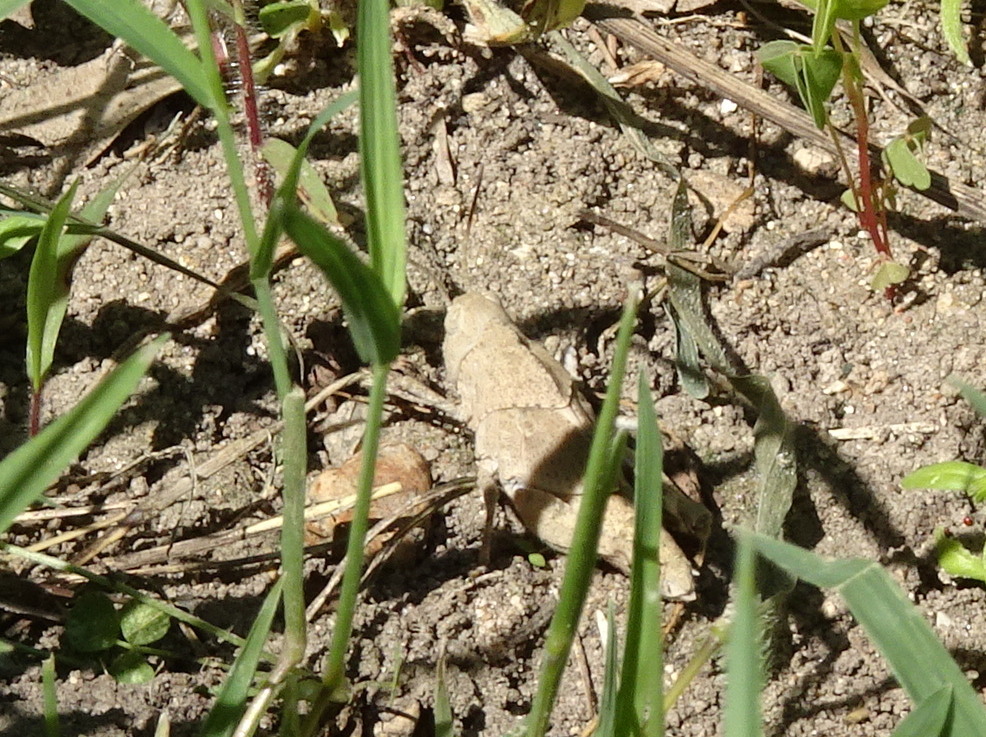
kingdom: Animalia
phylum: Arthropoda
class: Insecta
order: Orthoptera
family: Acrididae
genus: Dissosteira
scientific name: Dissosteira carolina
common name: Carolina grasshopper
